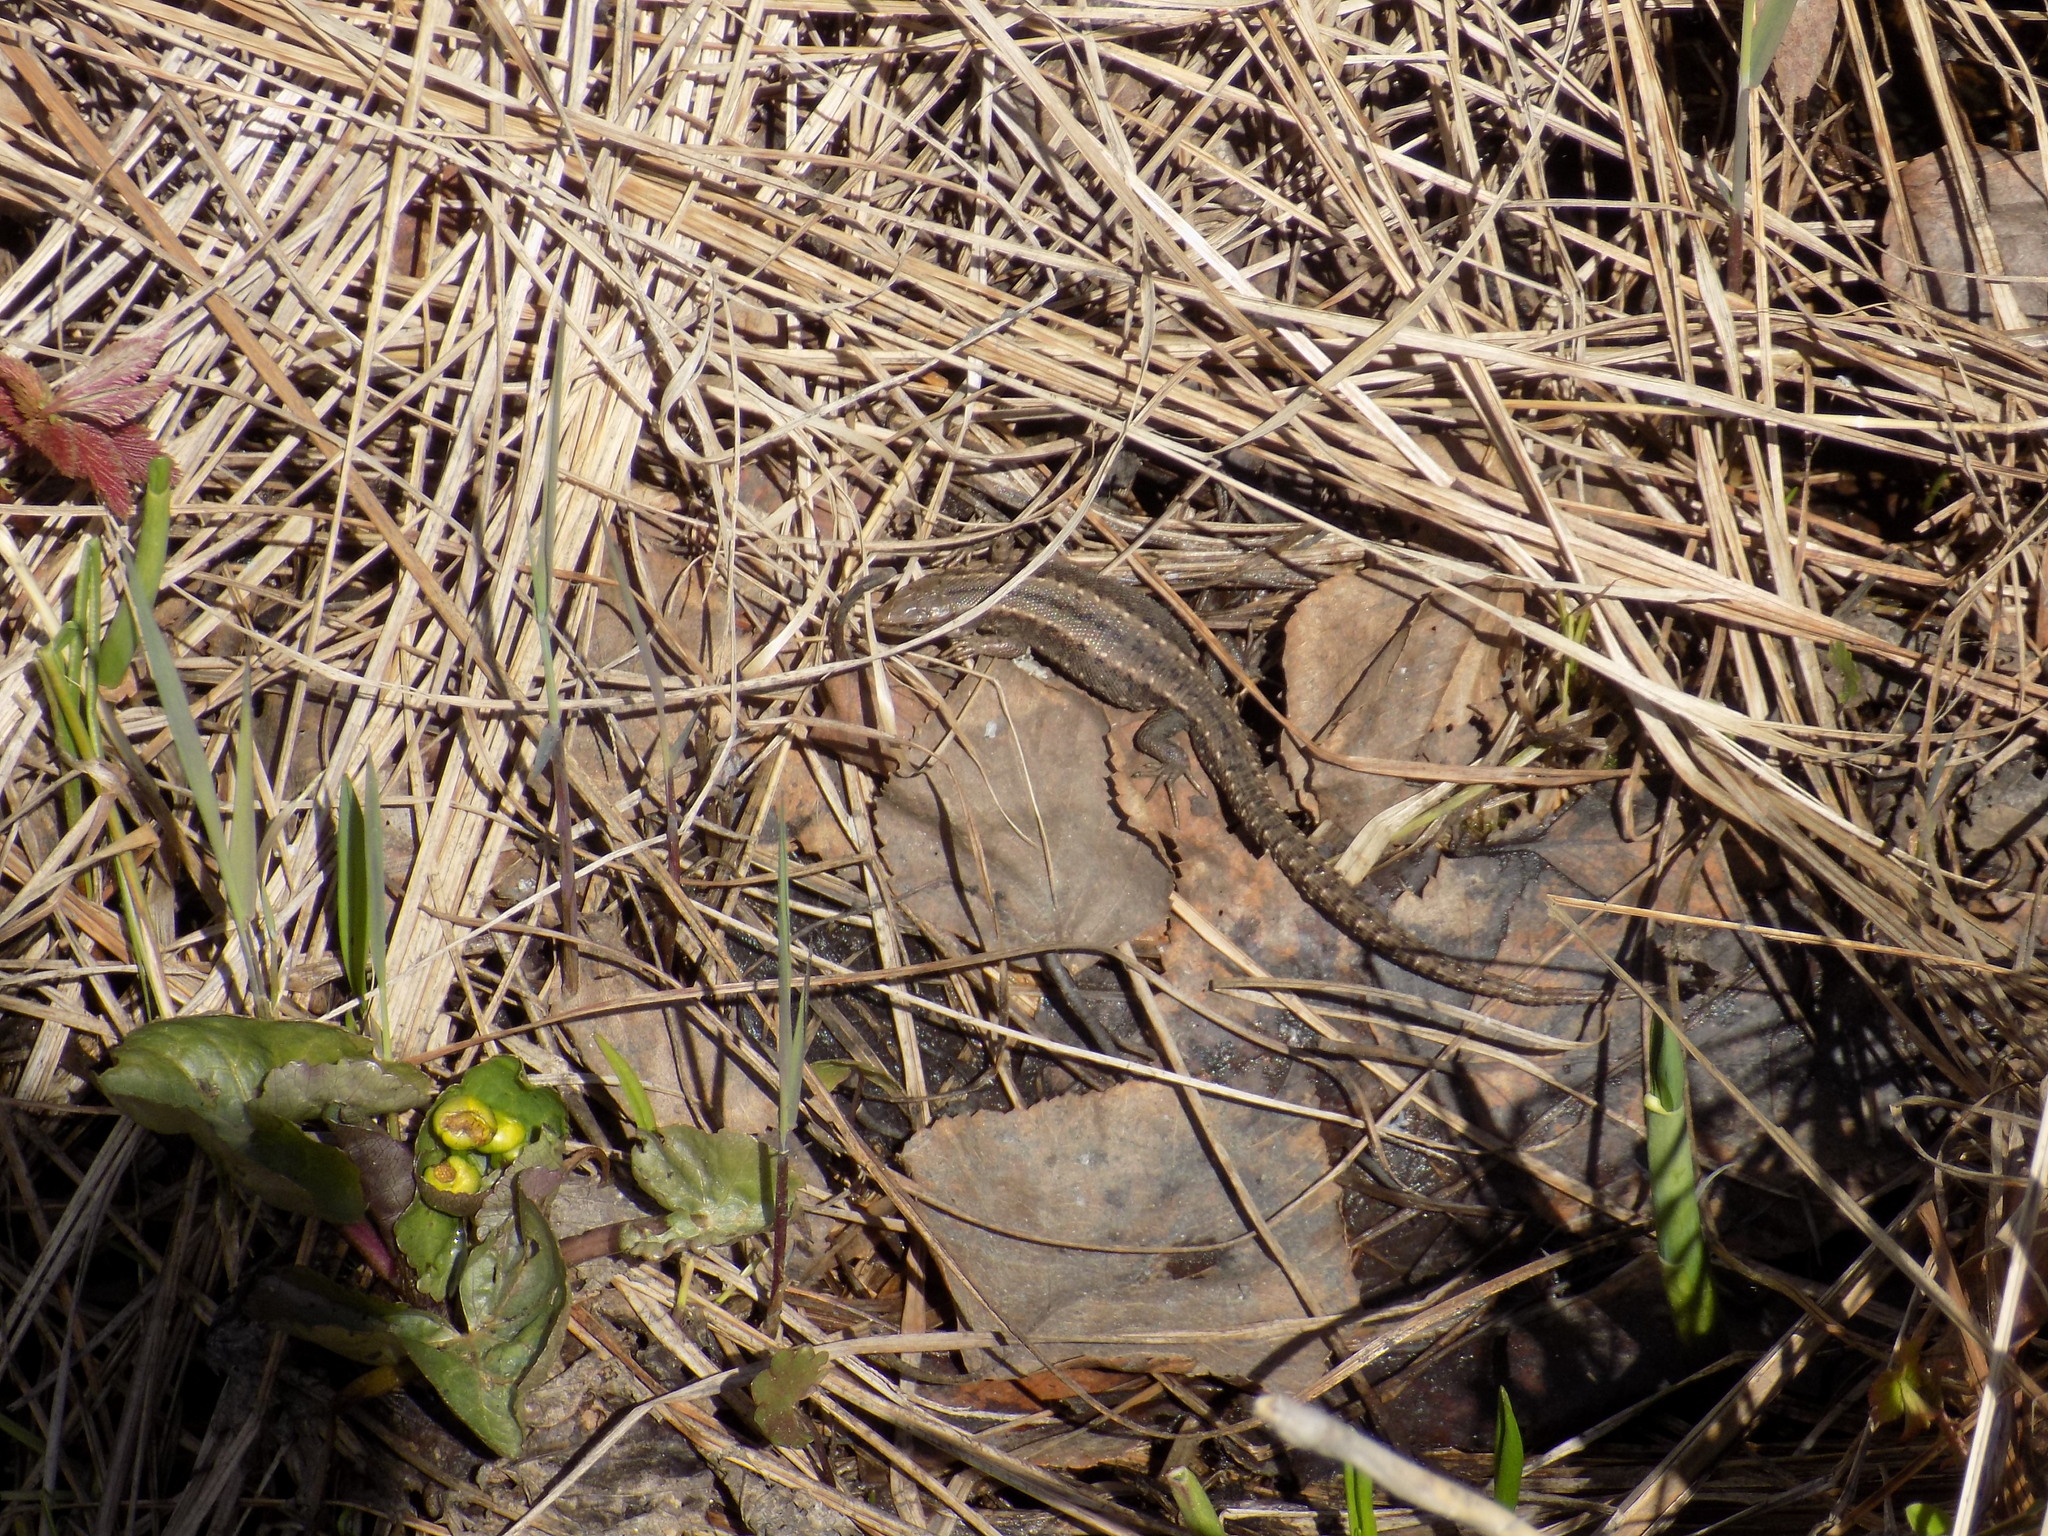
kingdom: Animalia
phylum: Chordata
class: Squamata
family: Lacertidae
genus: Zootoca
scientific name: Zootoca vivipara
